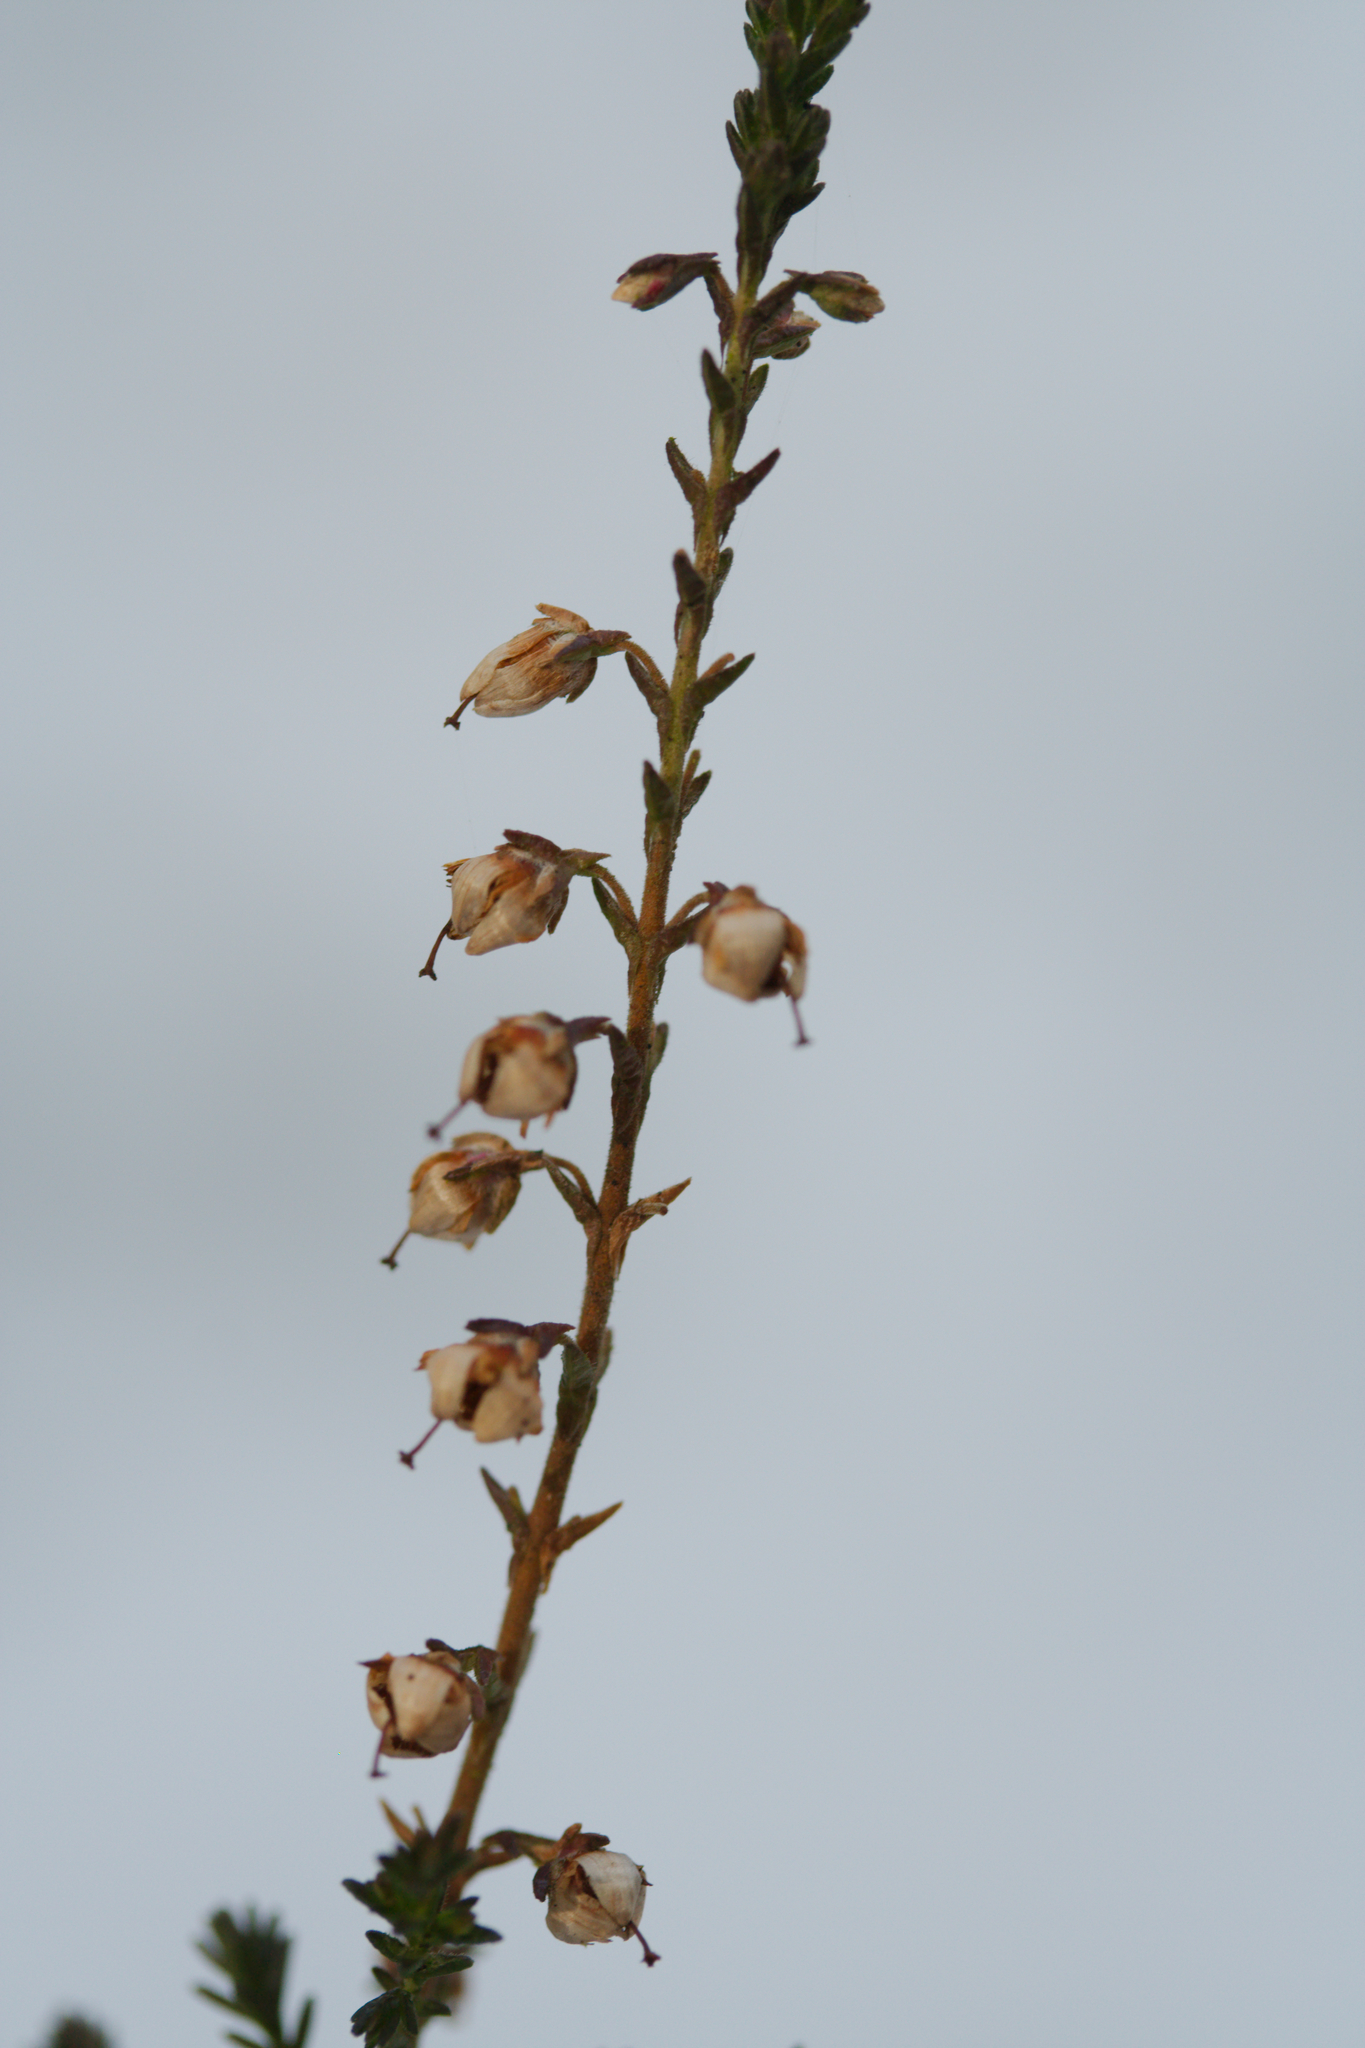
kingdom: Plantae
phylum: Tracheophyta
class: Magnoliopsida
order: Ericales
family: Ericaceae
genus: Calluna
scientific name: Calluna vulgaris
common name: Heather
